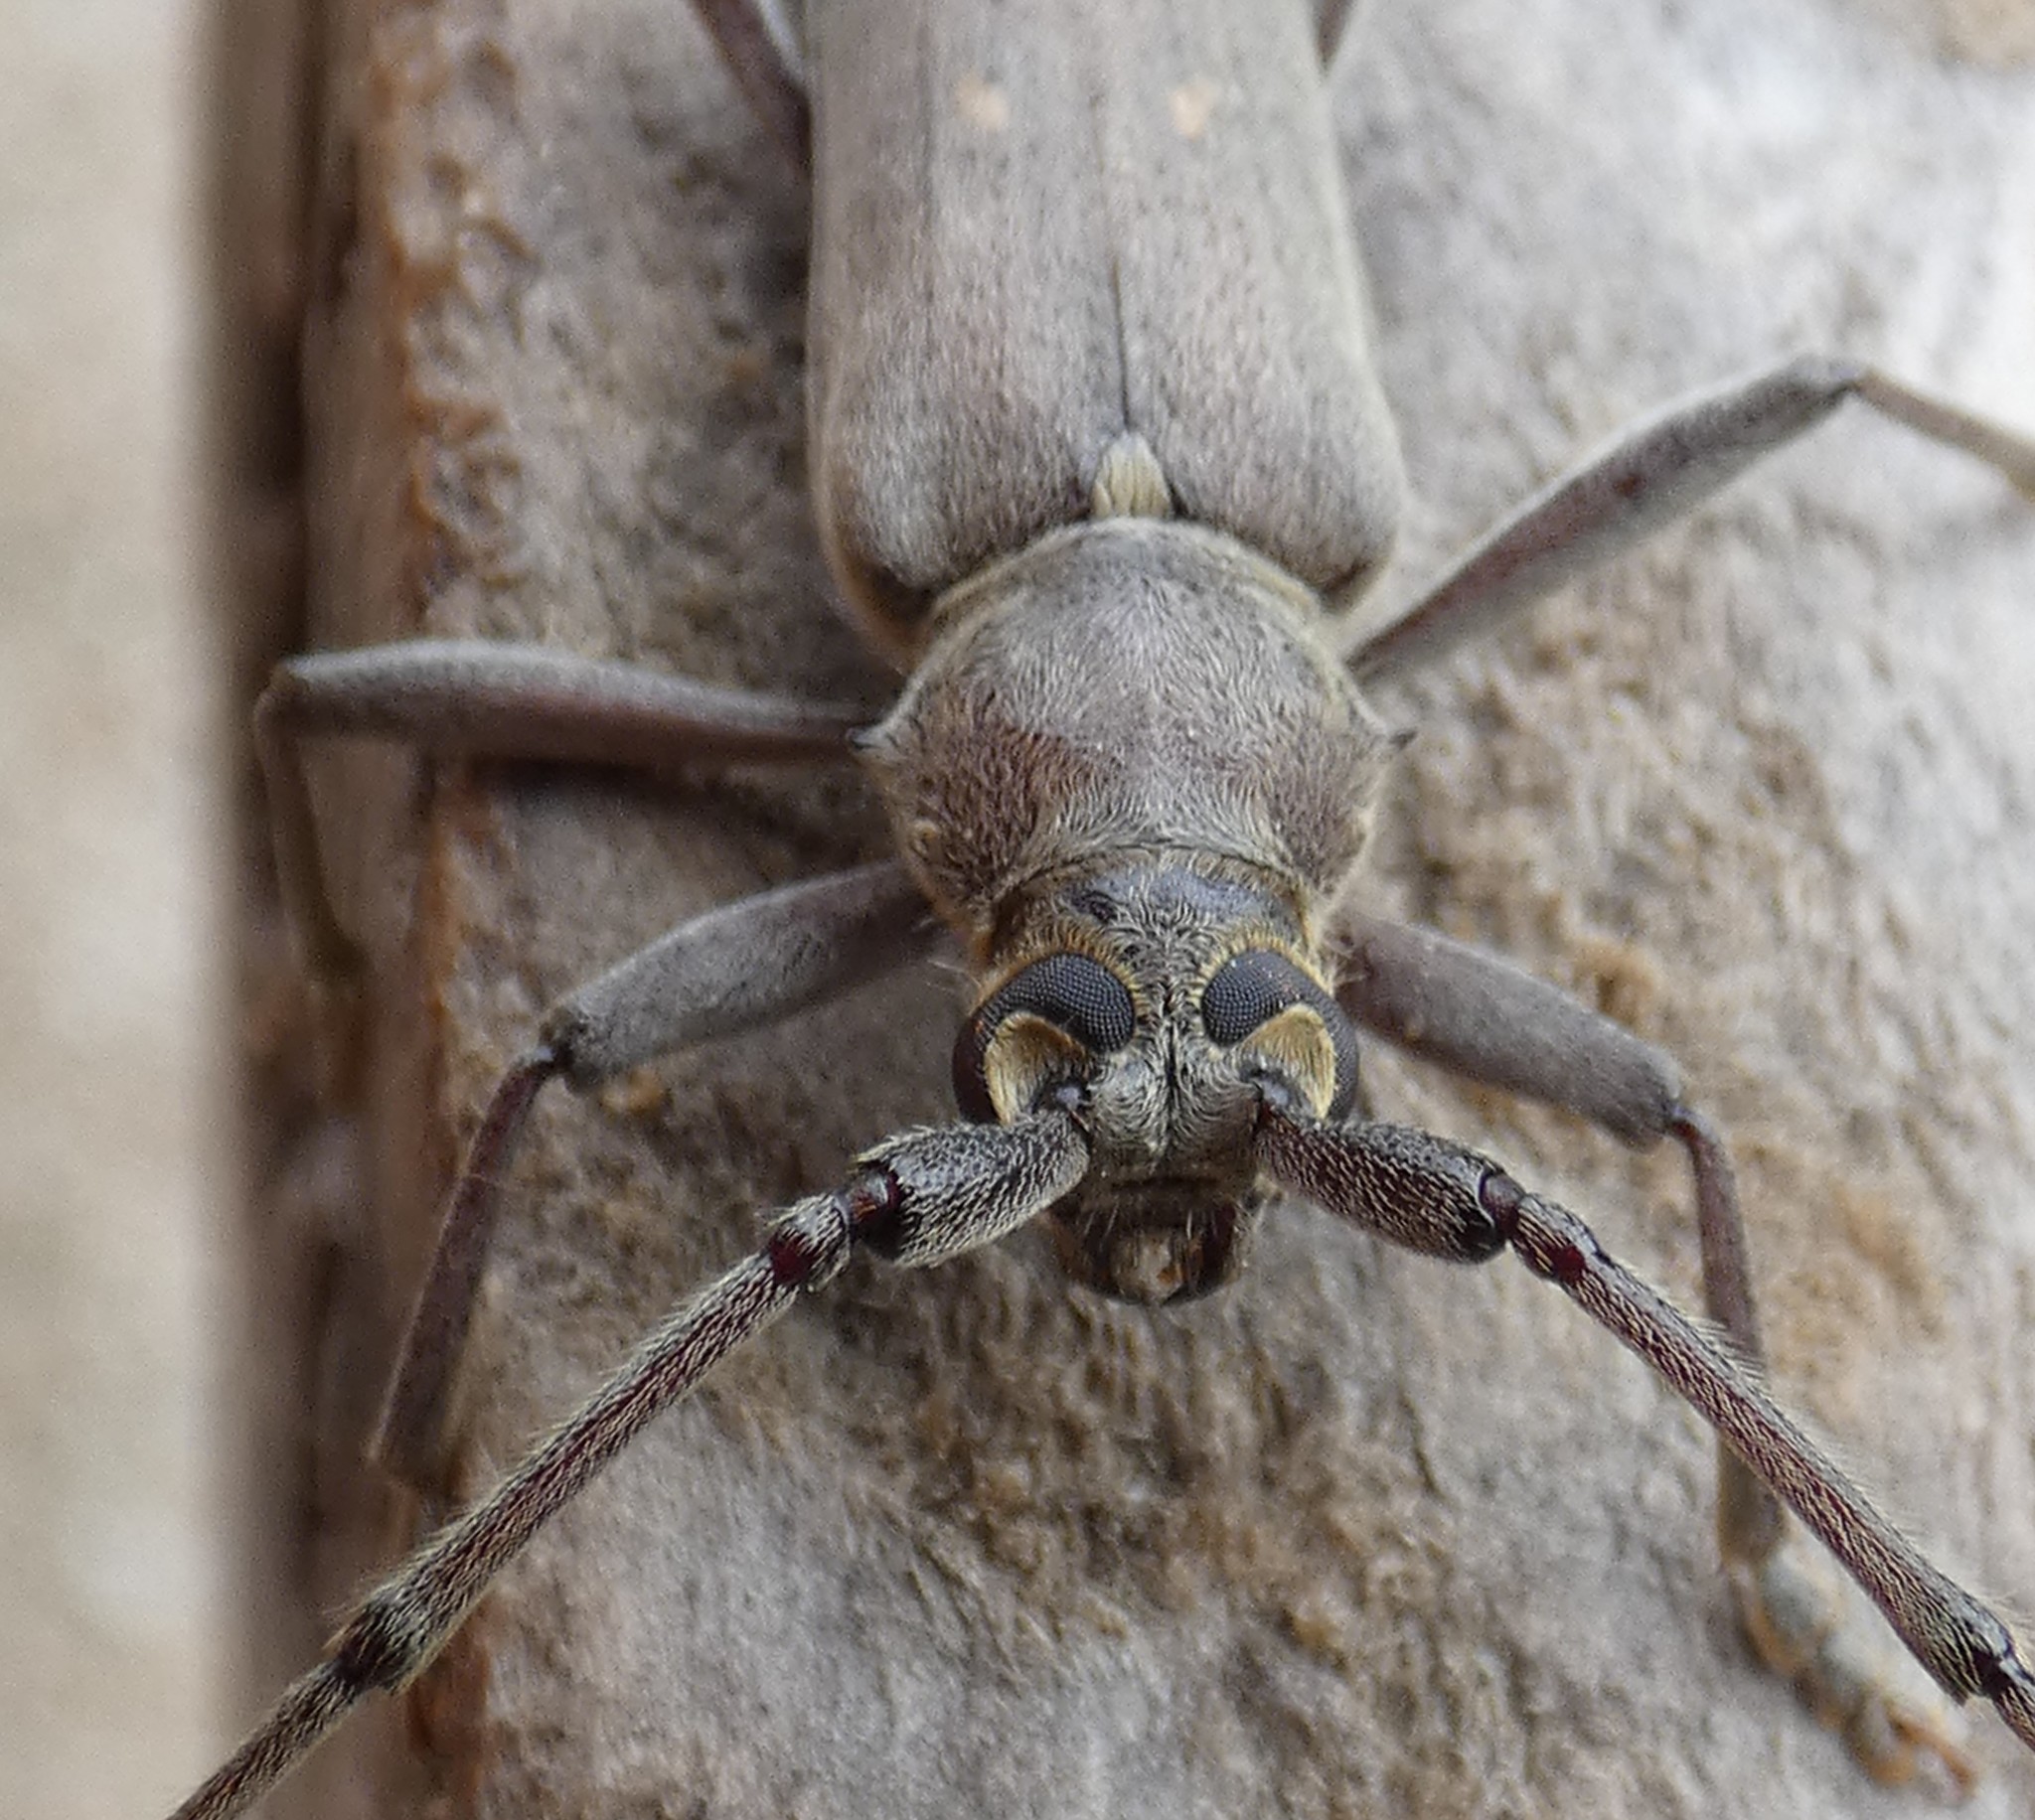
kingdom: Animalia
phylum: Arthropoda
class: Insecta
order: Coleoptera
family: Cerambycidae
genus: Knulliana
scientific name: Knulliana cincta
